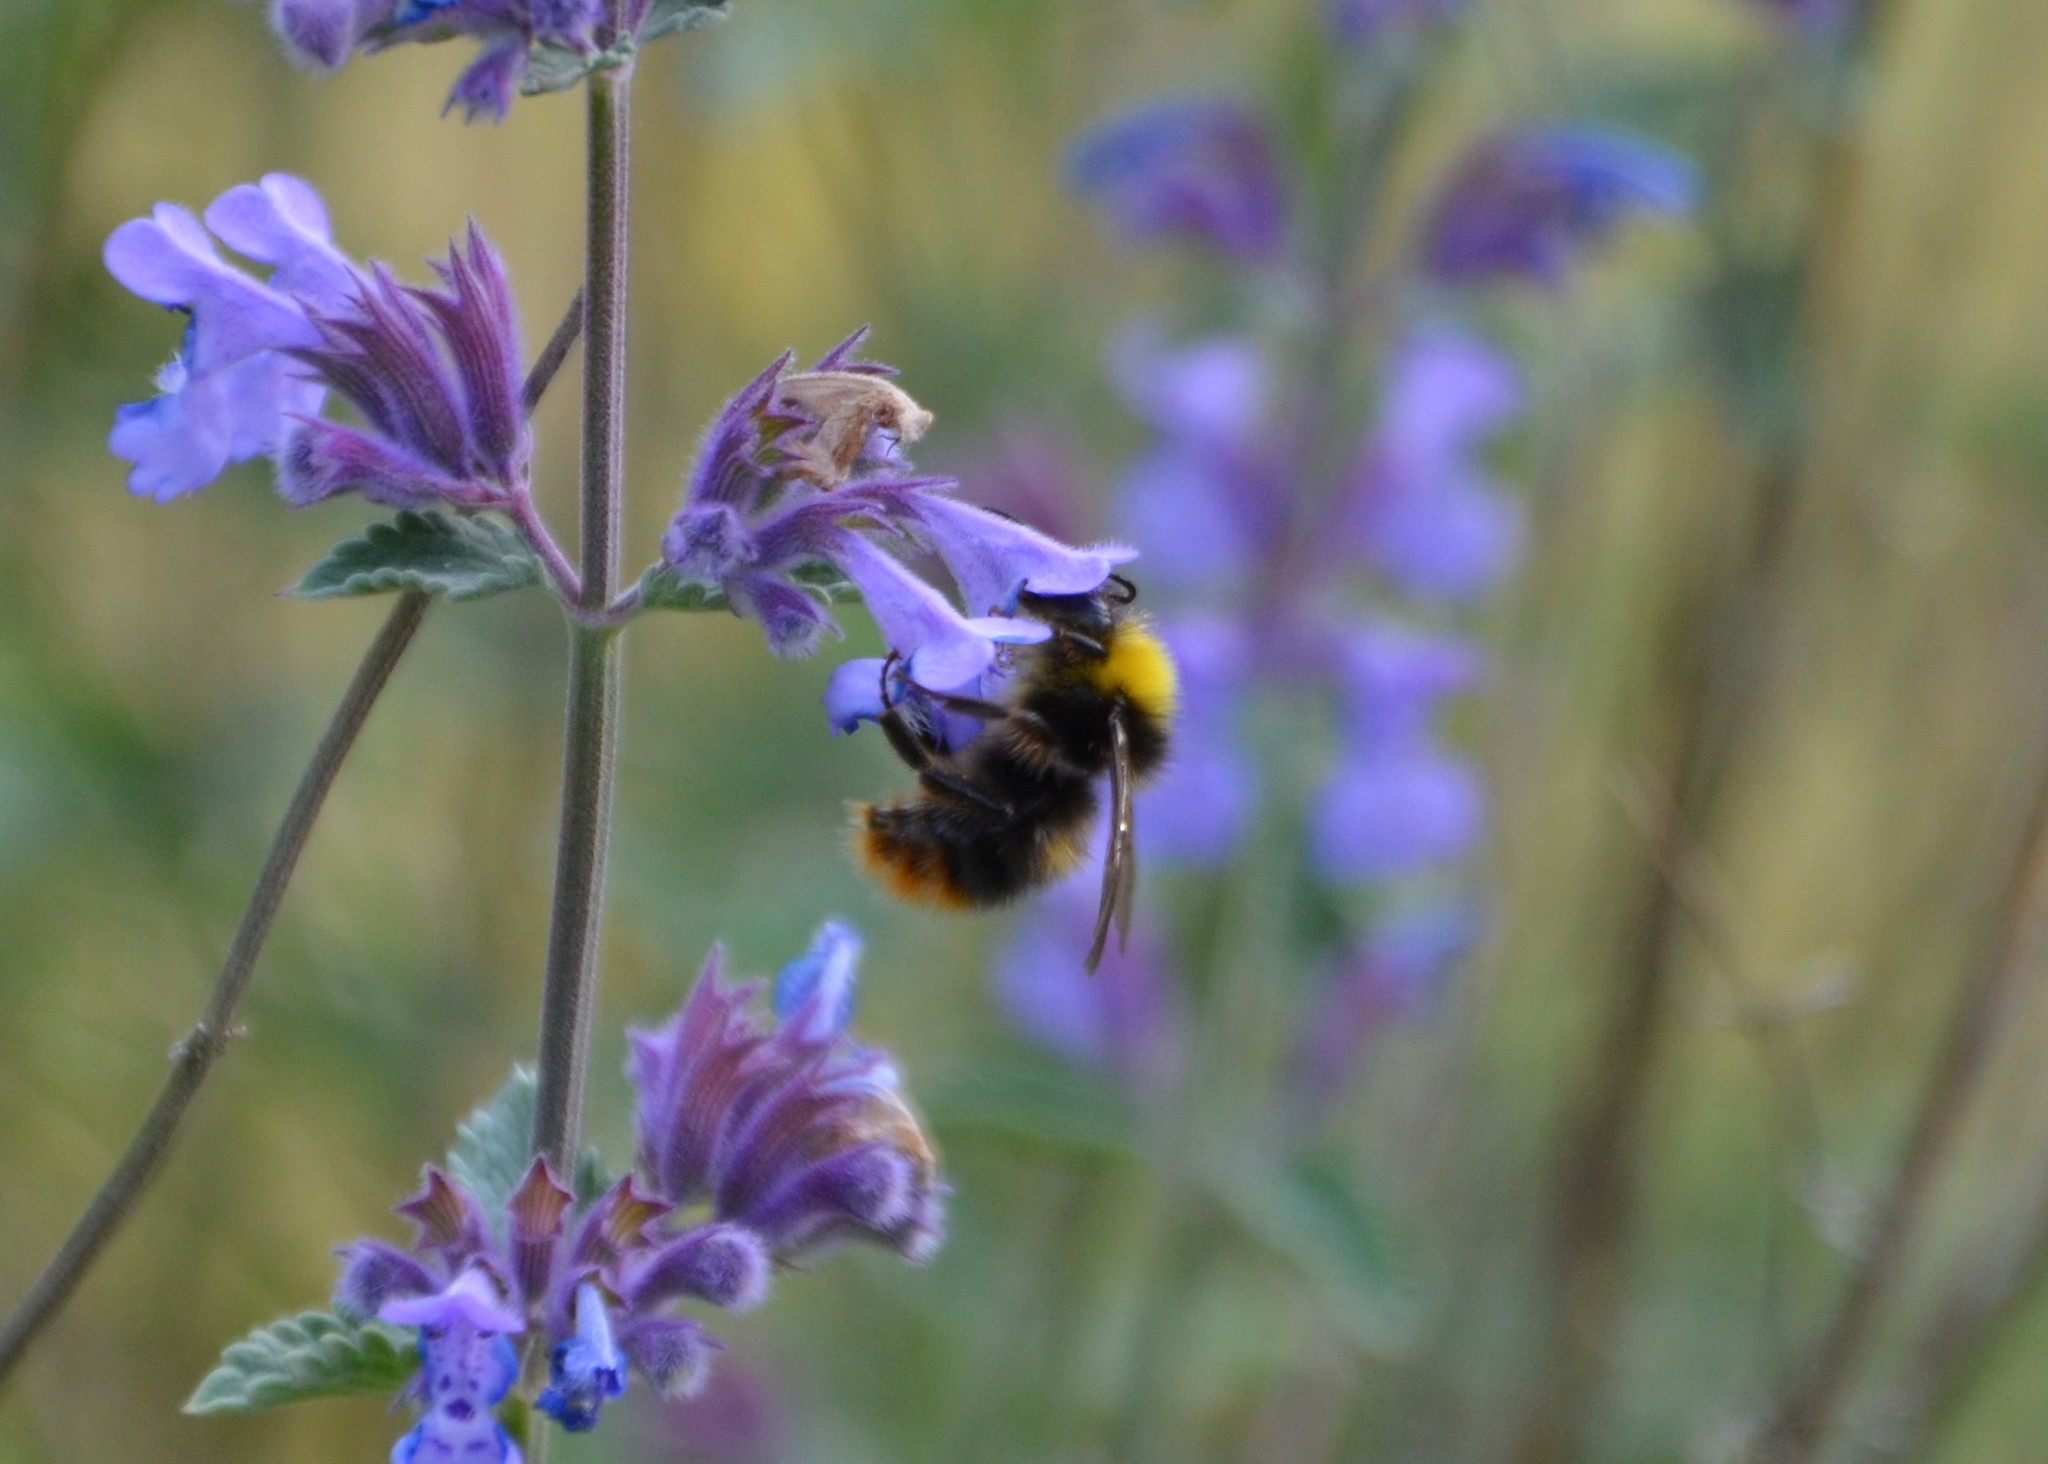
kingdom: Animalia
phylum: Arthropoda
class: Insecta
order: Hymenoptera
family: Apidae
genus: Bombus
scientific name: Bombus pratorum
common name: Early humble-bee
